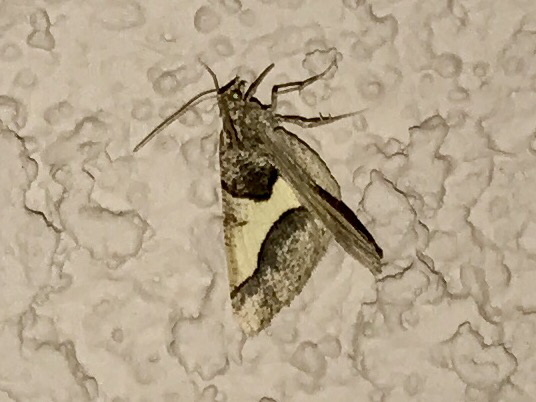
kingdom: Animalia
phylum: Arthropoda
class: Insecta
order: Lepidoptera
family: Geometridae
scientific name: Geometridae
